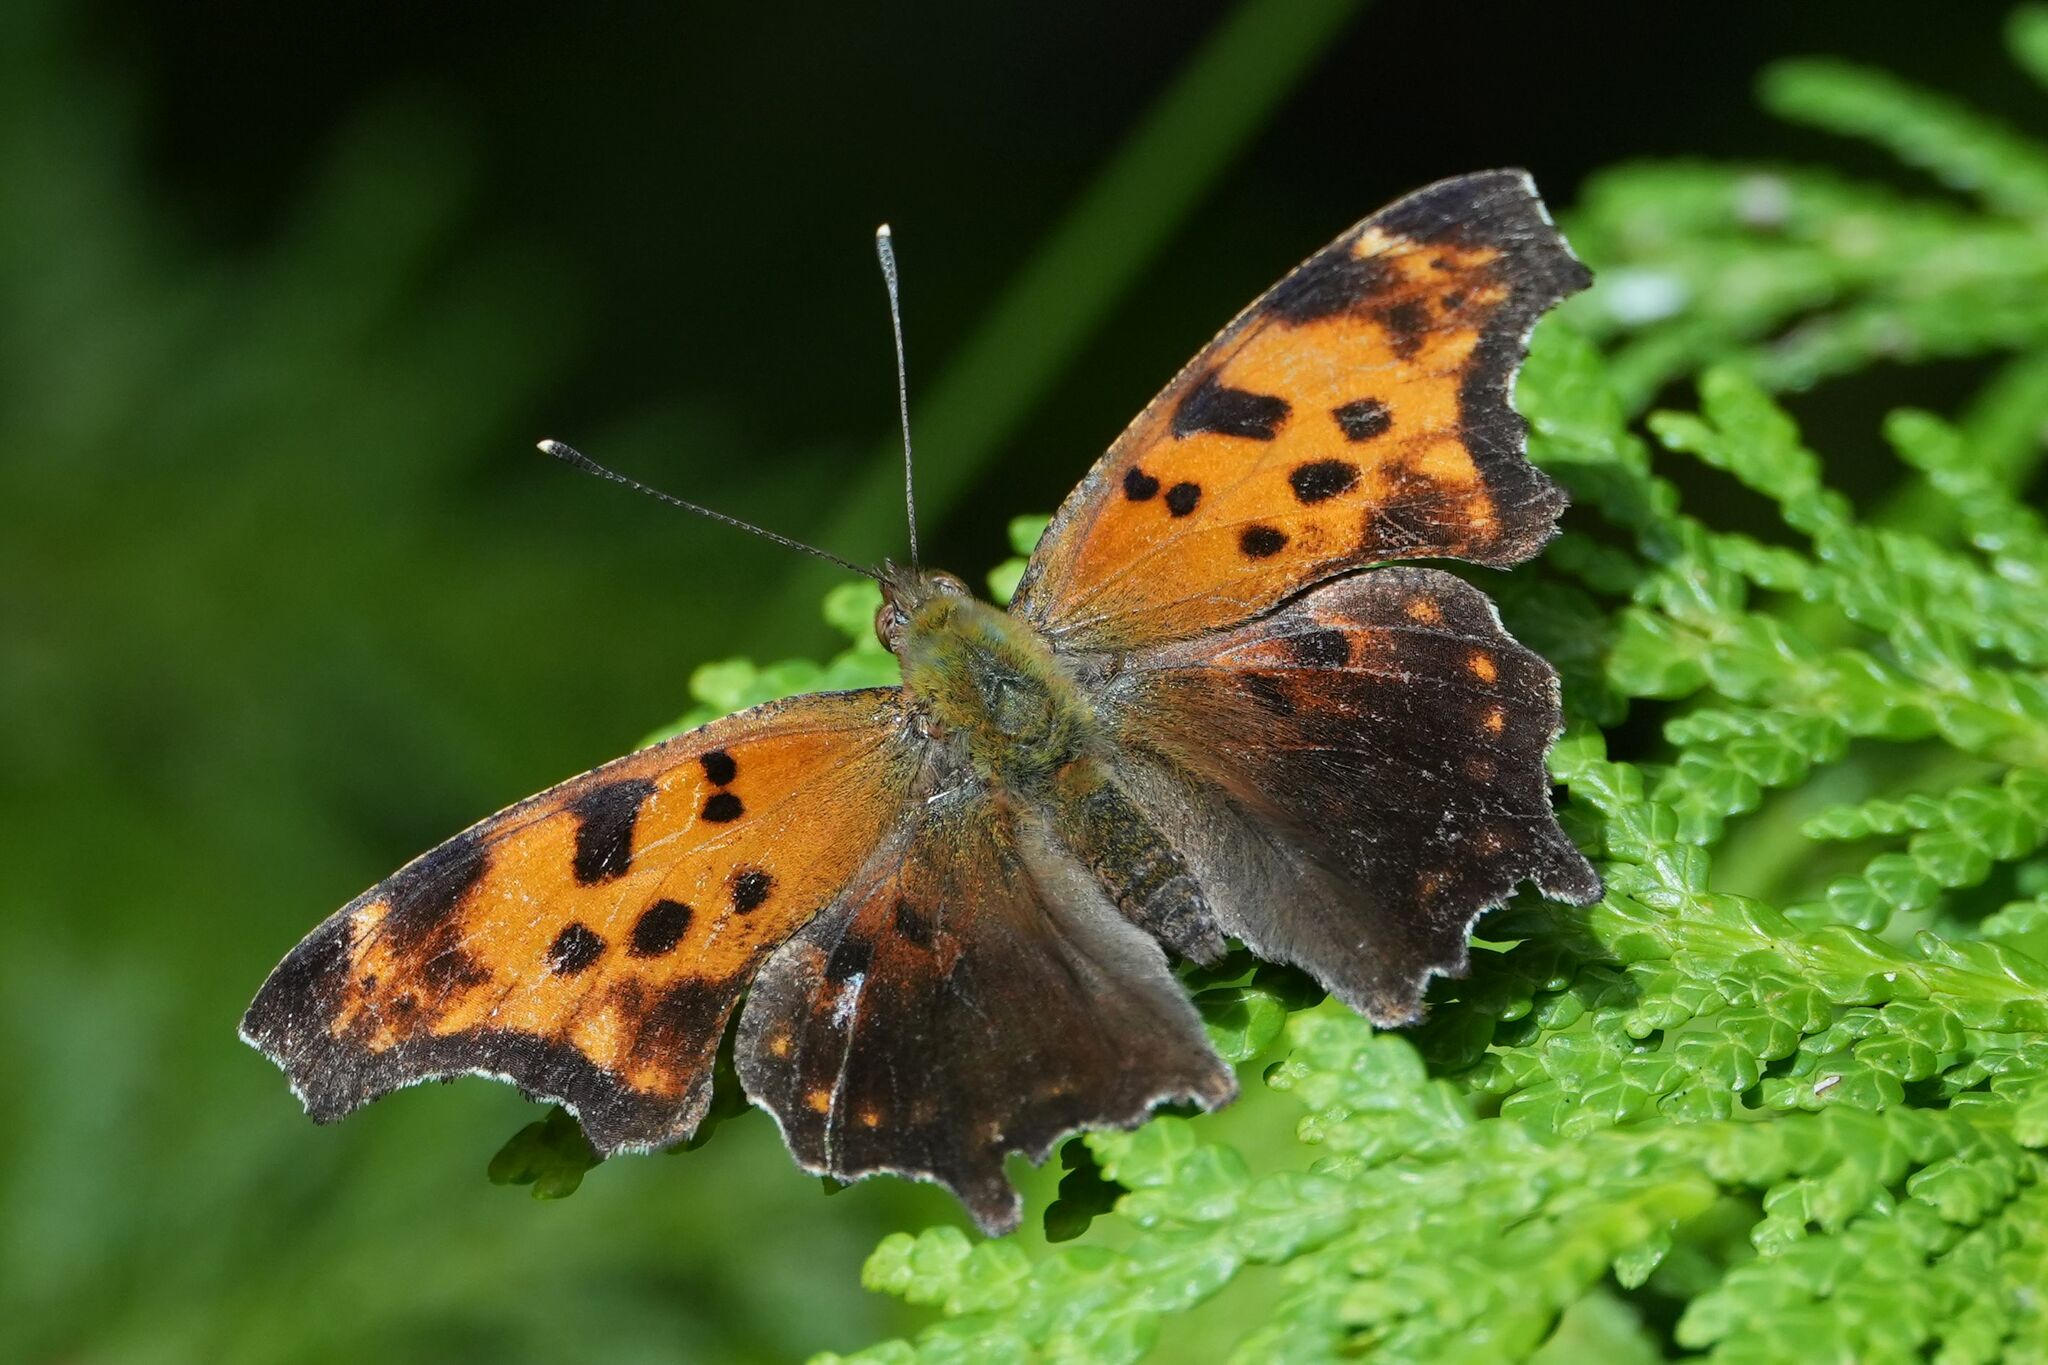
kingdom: Animalia
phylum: Arthropoda
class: Insecta
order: Lepidoptera
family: Nymphalidae
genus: Polygonia
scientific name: Polygonia comma
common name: Eastern comma
